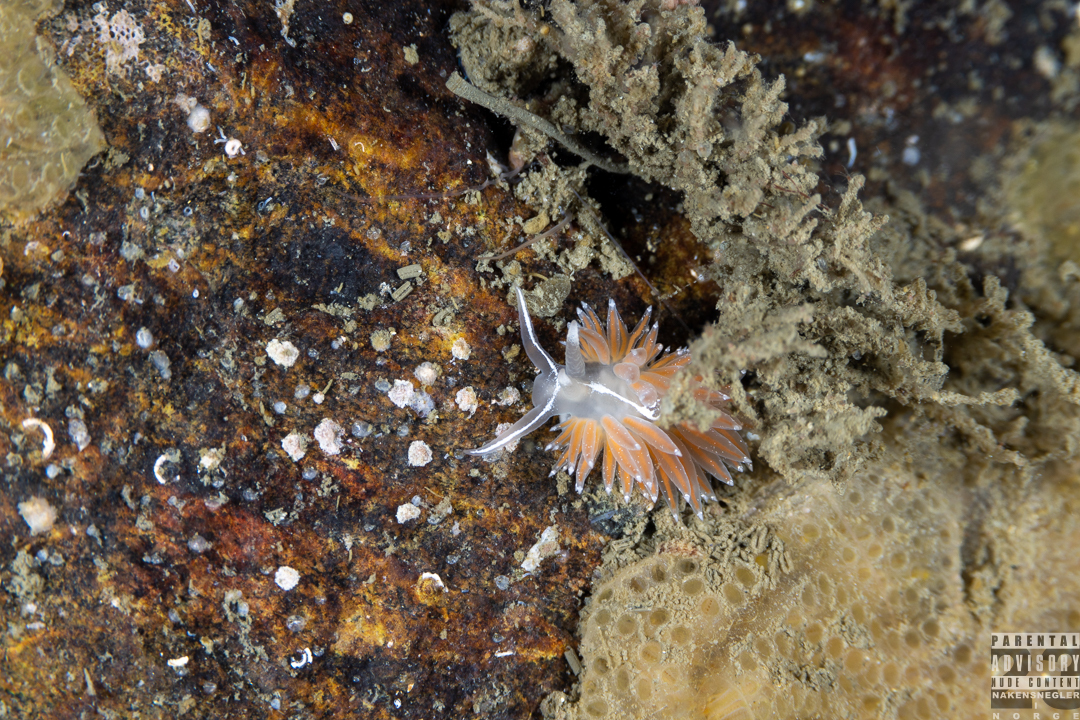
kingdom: Animalia
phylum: Mollusca
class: Gastropoda
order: Nudibranchia
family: Coryphellidae
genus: Coryphella
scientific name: Coryphella monicae
